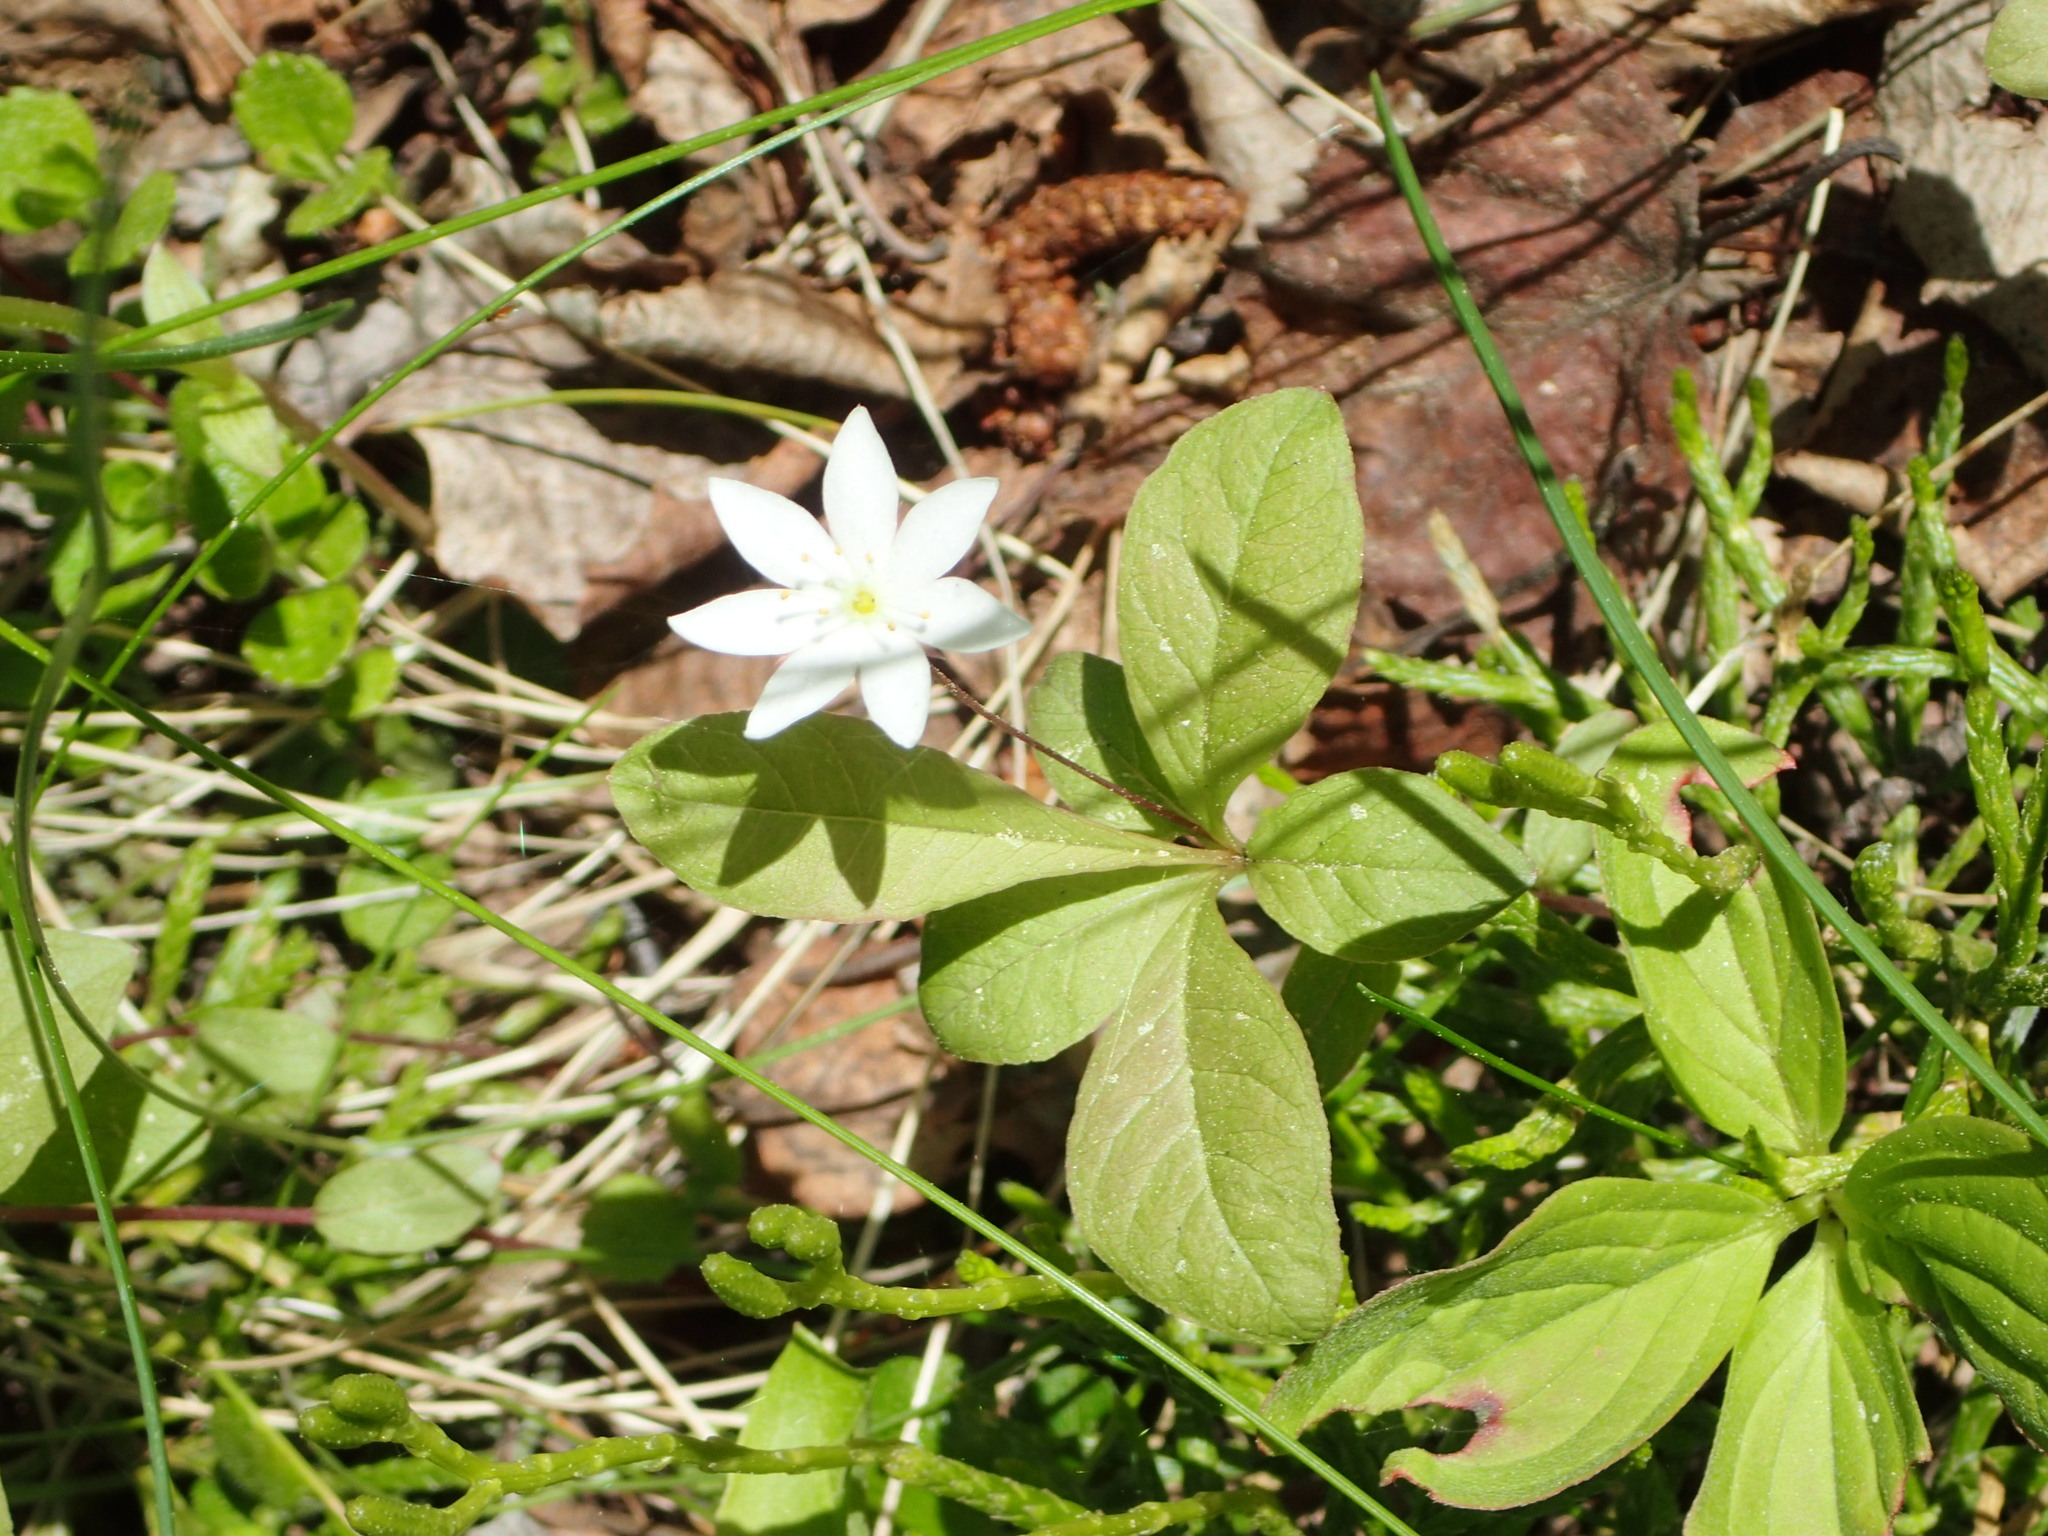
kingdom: Plantae
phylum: Tracheophyta
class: Magnoliopsida
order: Ericales
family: Primulaceae
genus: Lysimachia
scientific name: Lysimachia europaea
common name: Arctic starflower
